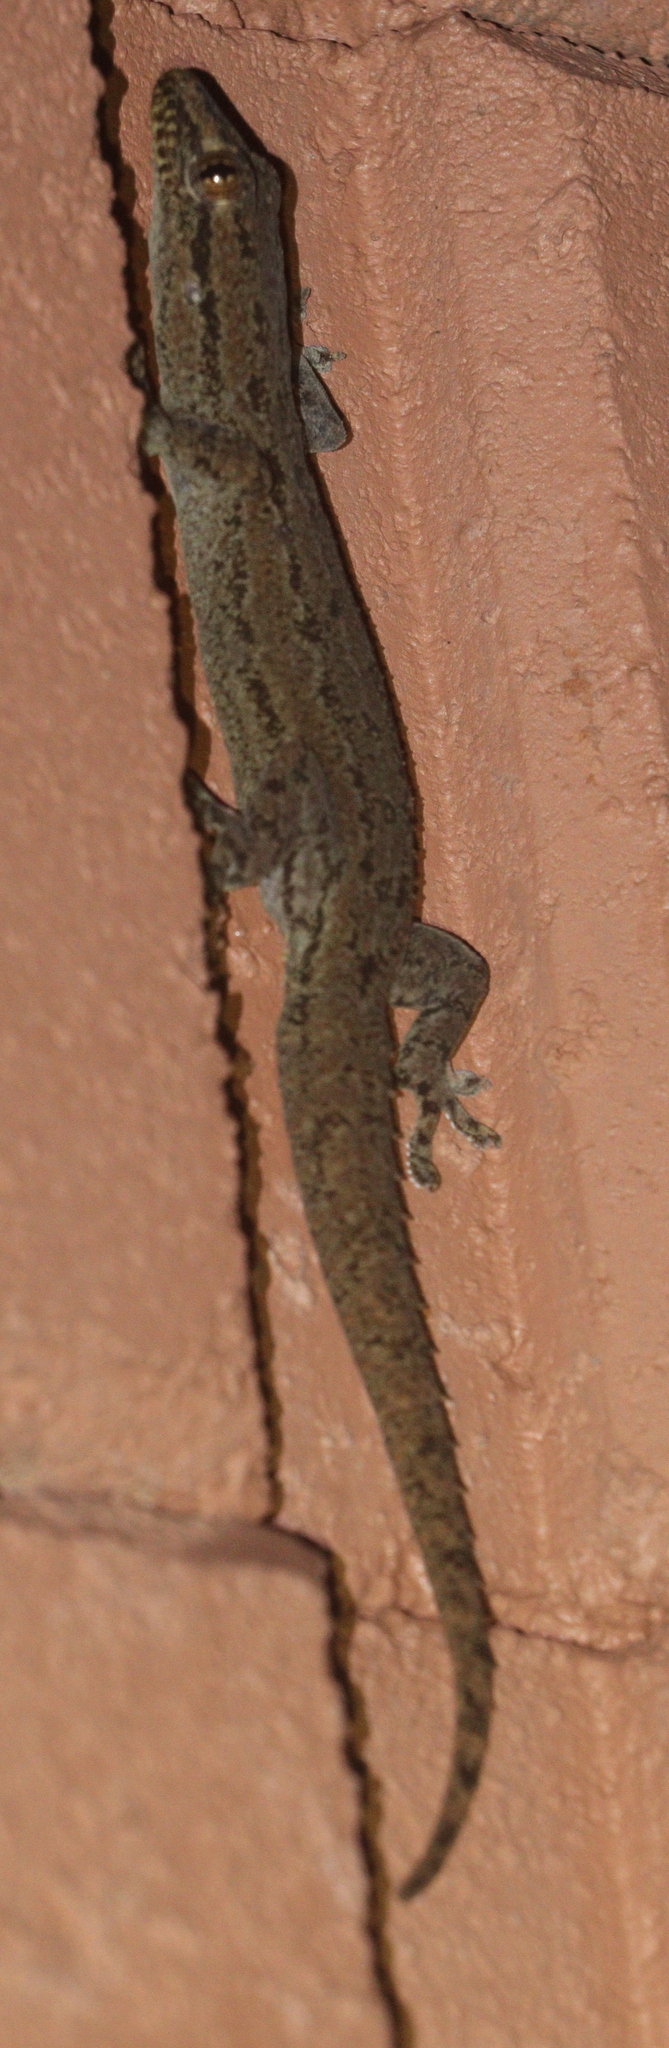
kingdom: Animalia
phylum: Chordata
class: Squamata
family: Gekkonidae
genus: Hemidactylus
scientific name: Hemidactylus frenatus
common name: Common house gecko
